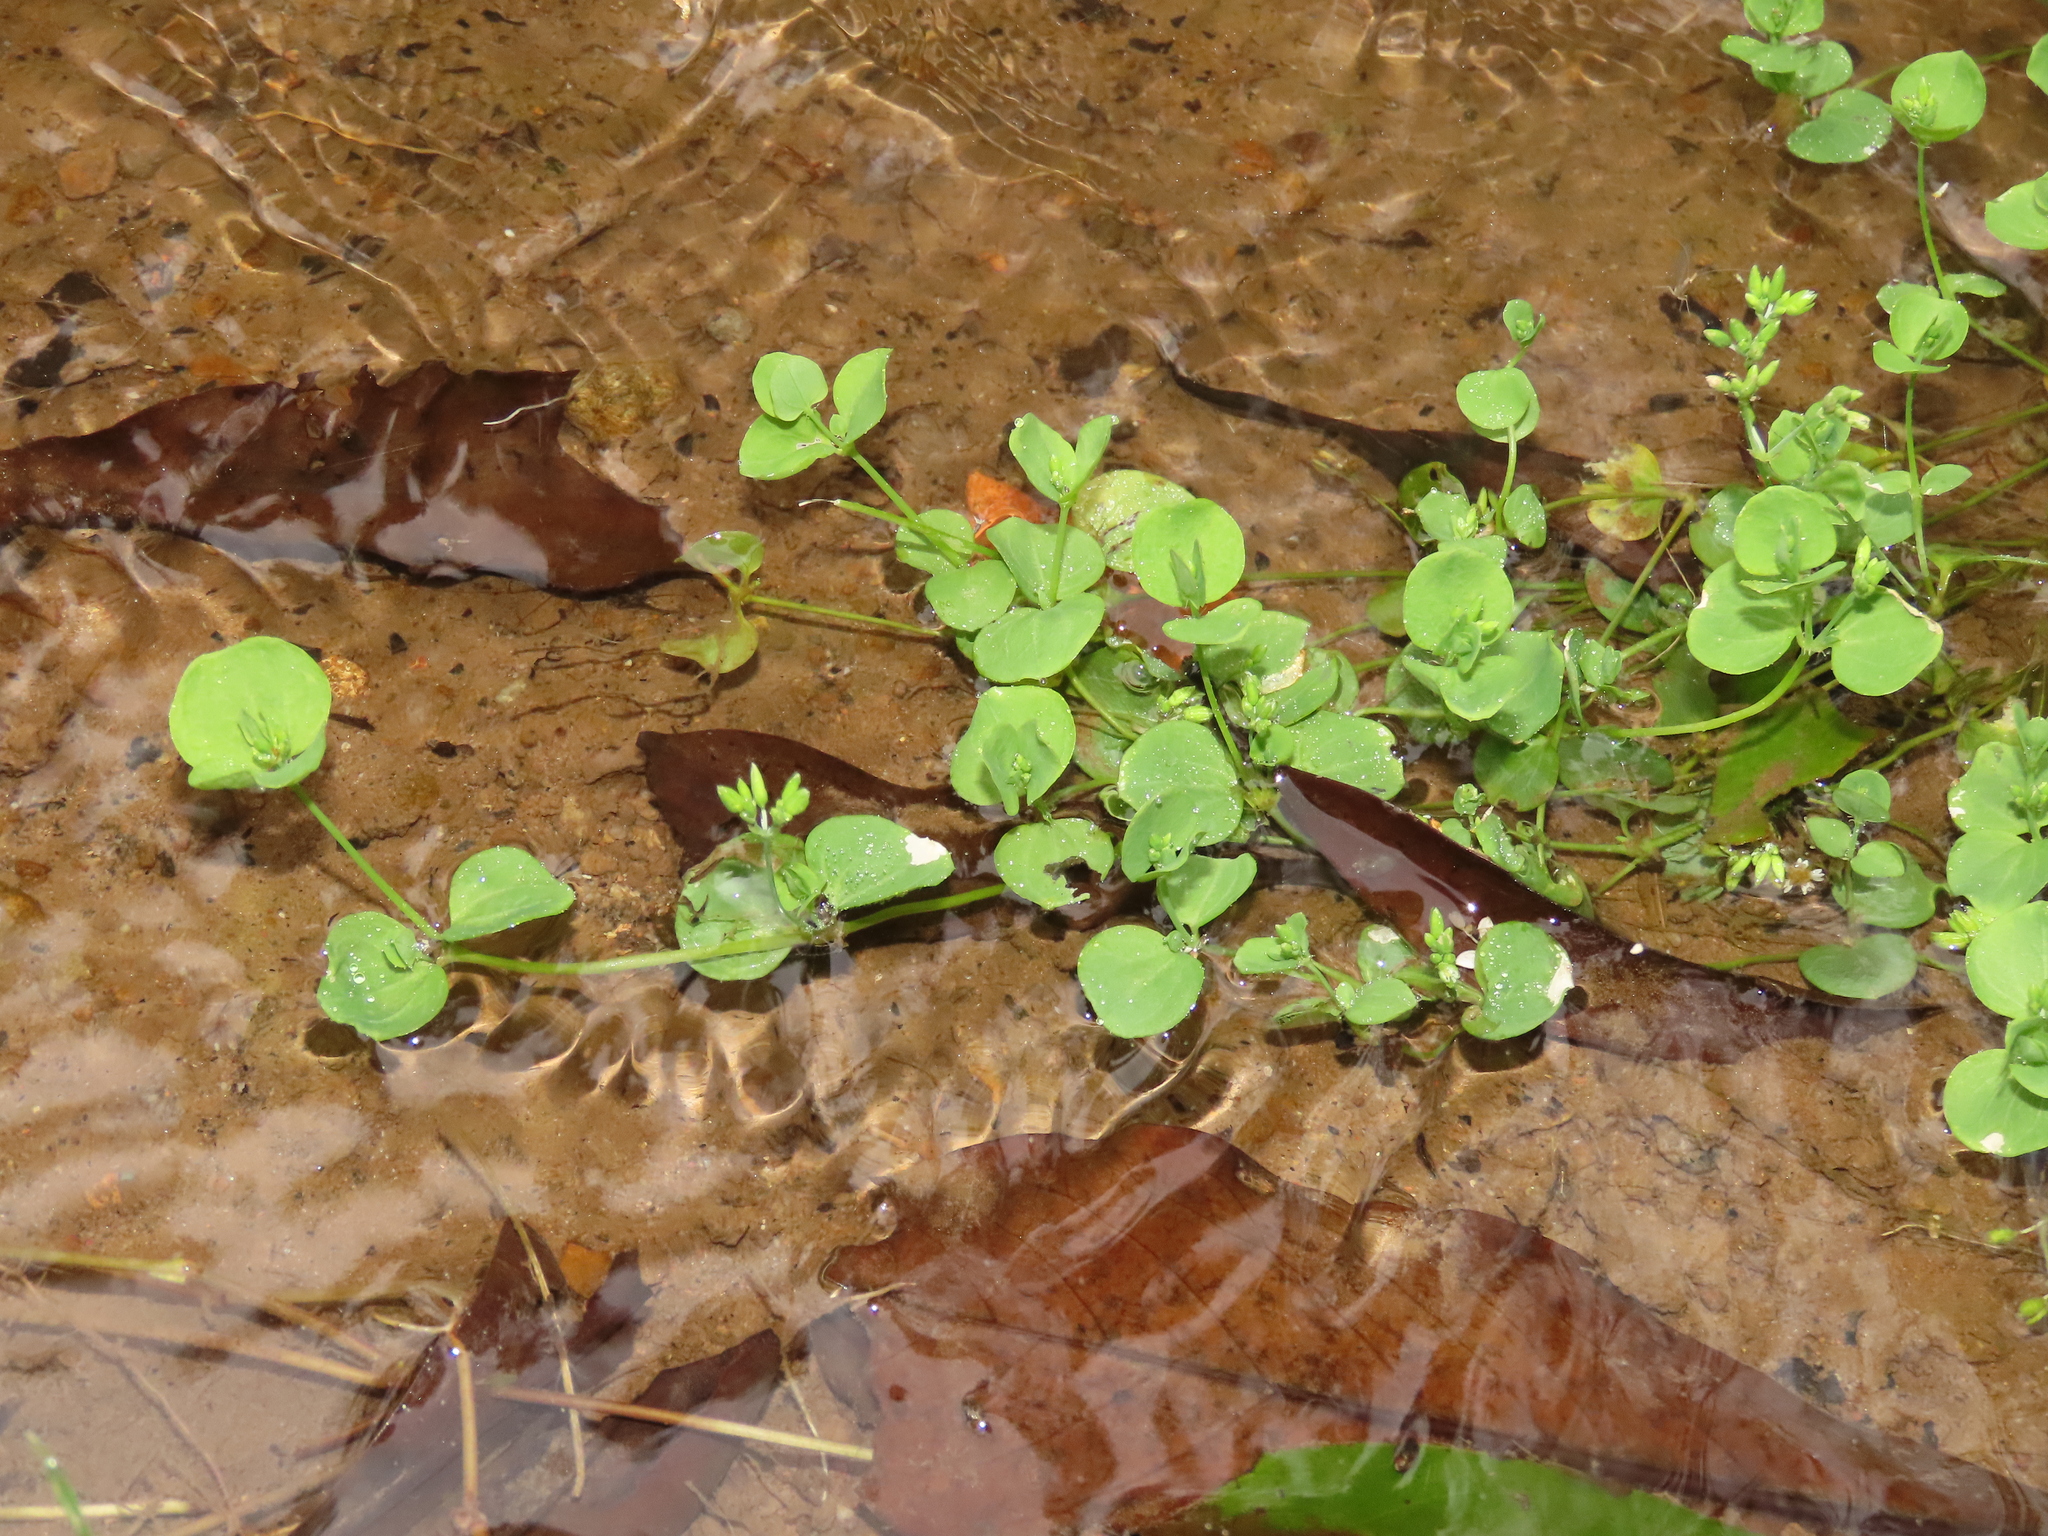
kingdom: Plantae
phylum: Tracheophyta
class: Magnoliopsida
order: Caryophyllales
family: Caryophyllaceae
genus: Drymaria
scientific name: Drymaria cordata
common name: Whitesnow
